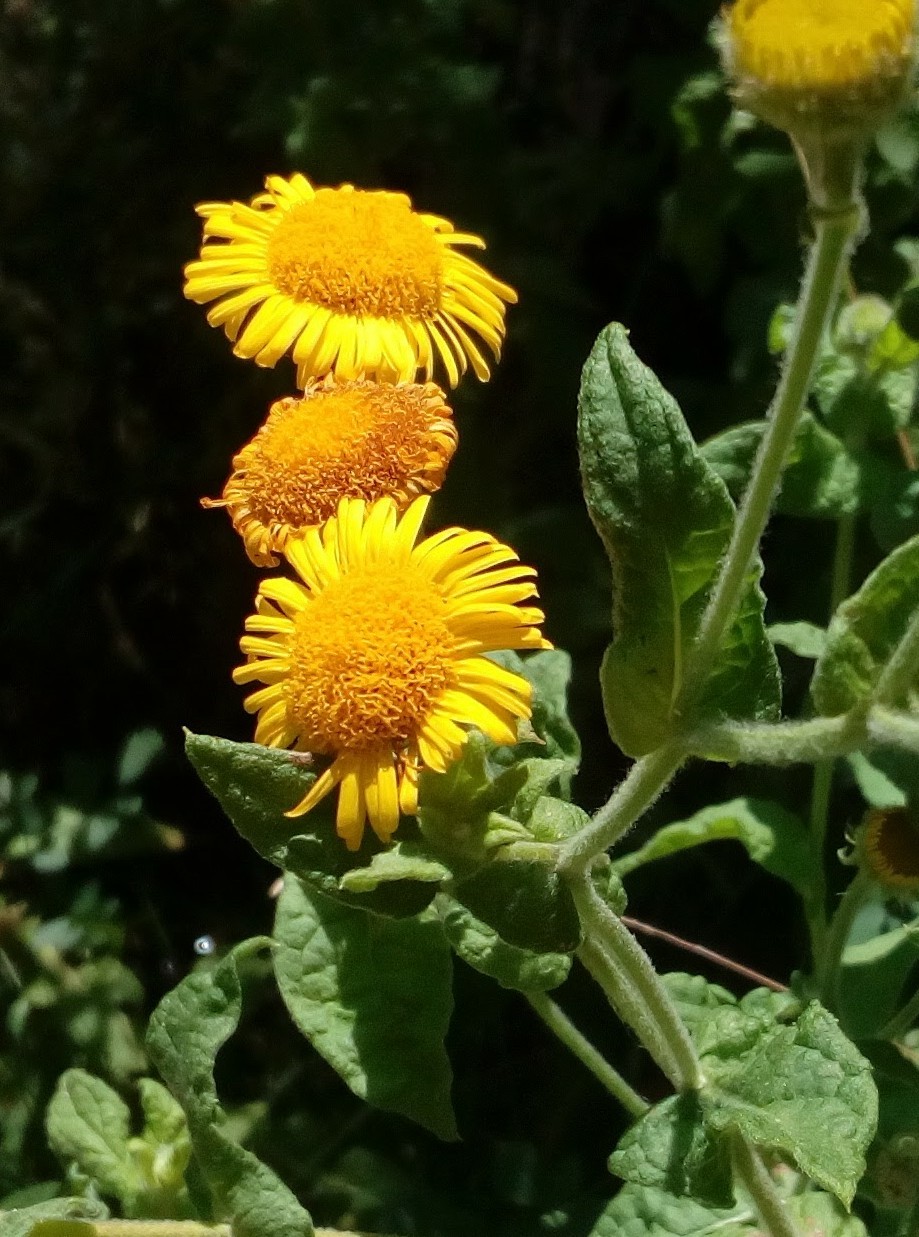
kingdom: Plantae
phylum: Tracheophyta
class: Magnoliopsida
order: Asterales
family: Asteraceae
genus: Pulicaria
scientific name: Pulicaria dysenterica
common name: Common fleabane
